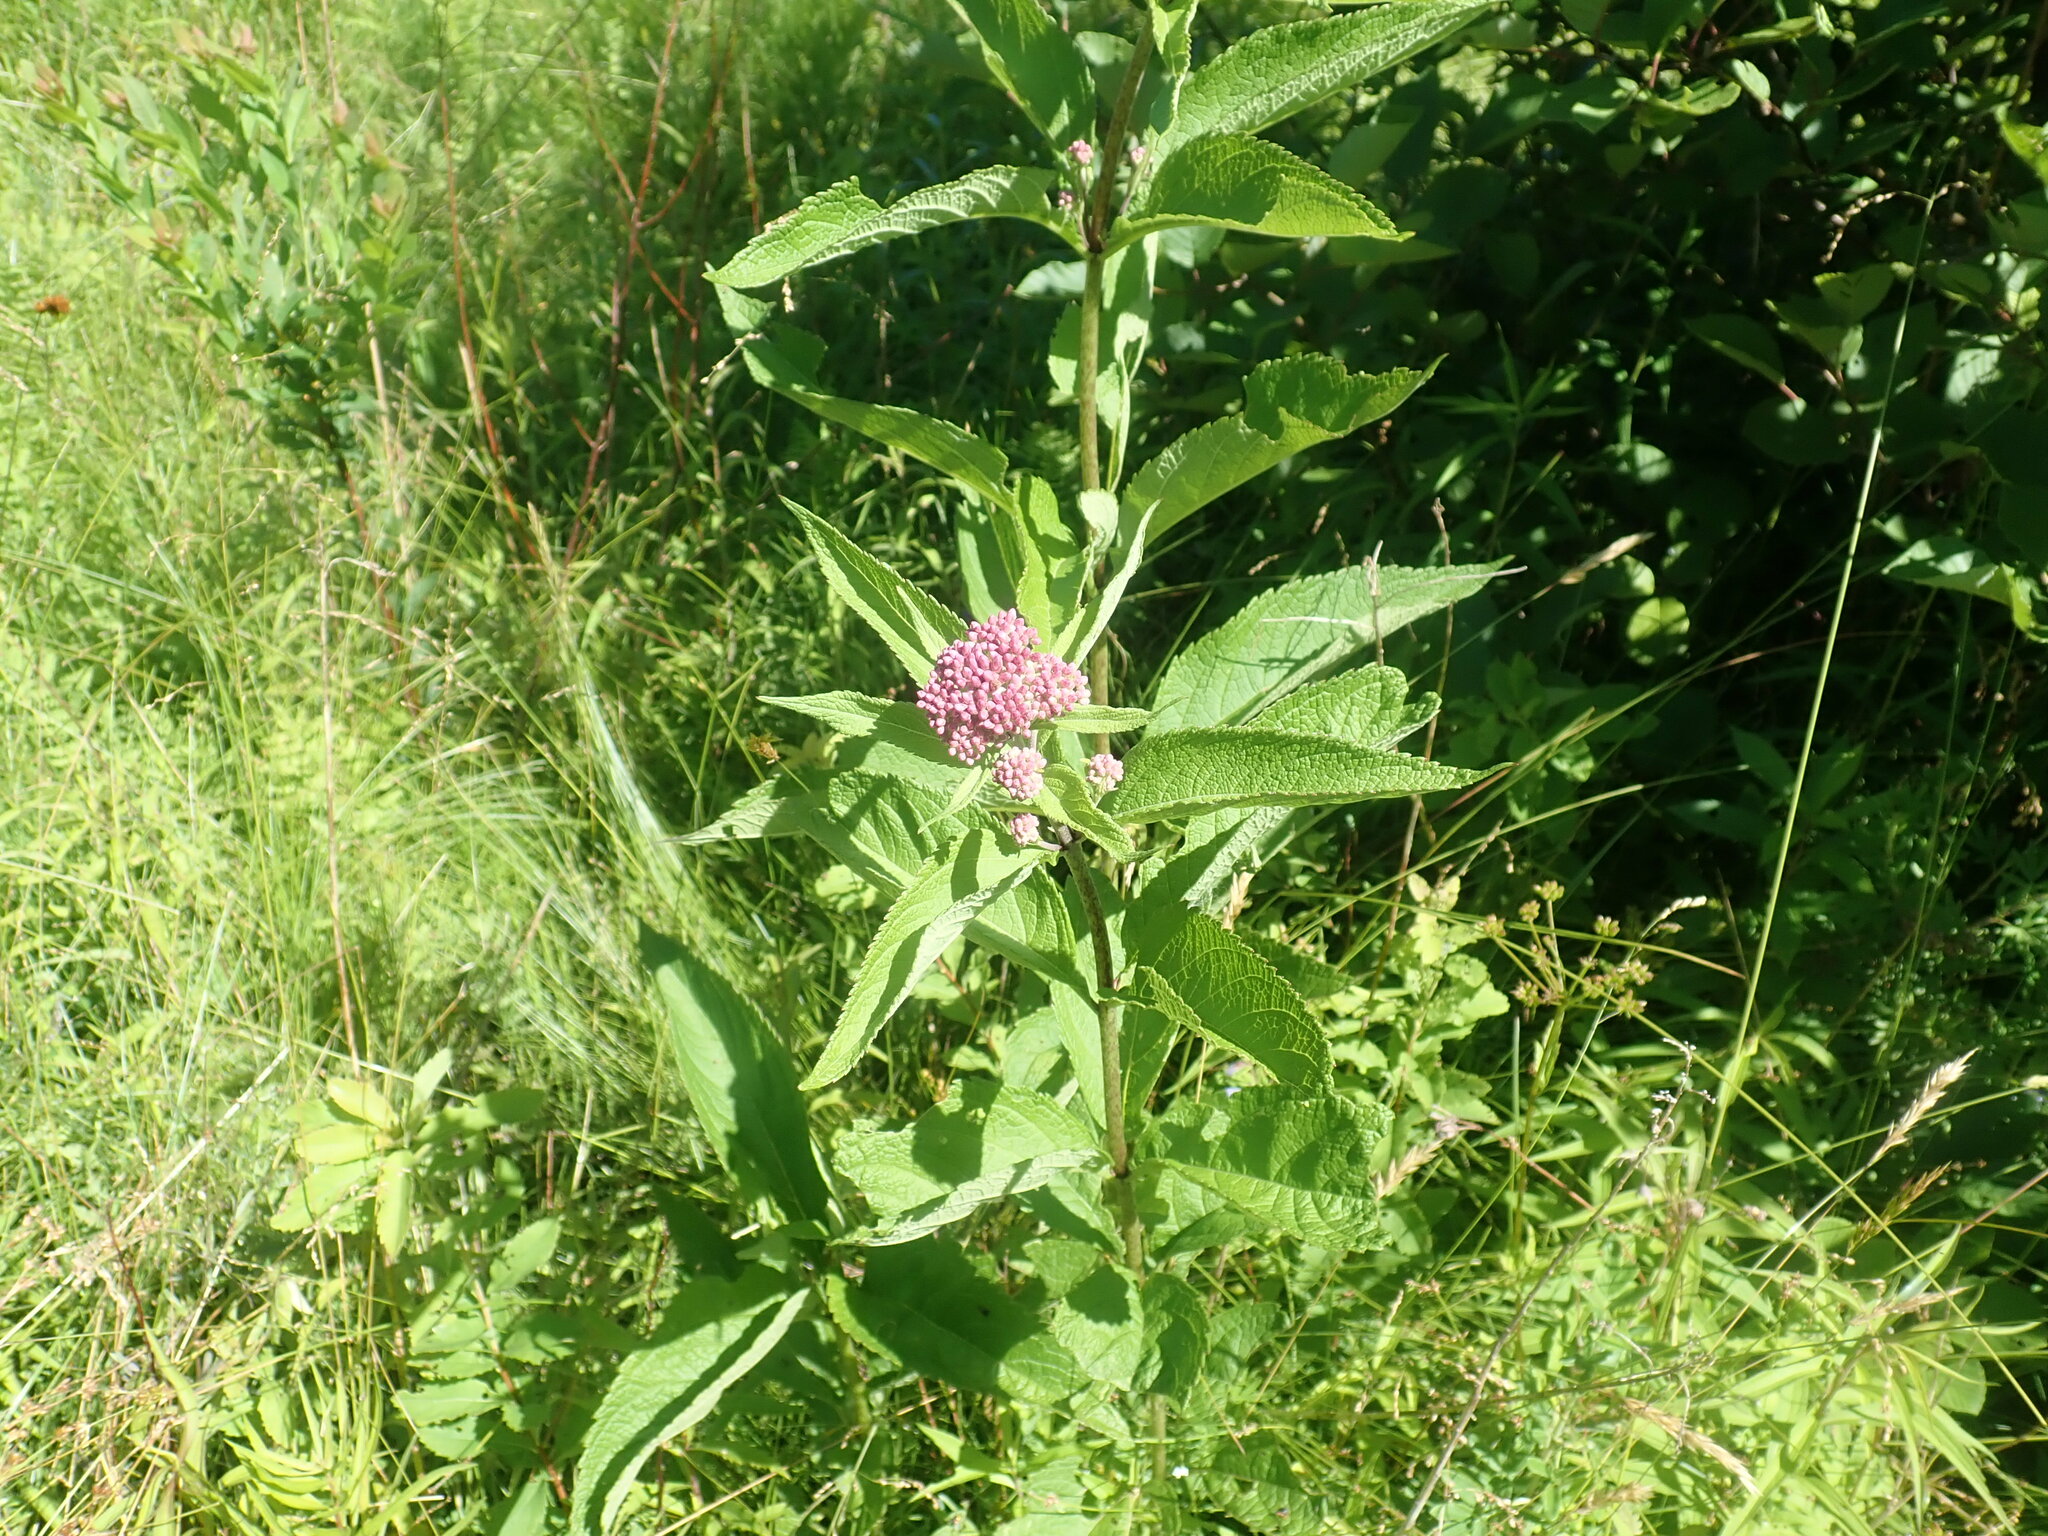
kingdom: Plantae
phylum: Tracheophyta
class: Magnoliopsida
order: Asterales
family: Asteraceae
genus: Eutrochium
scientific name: Eutrochium
